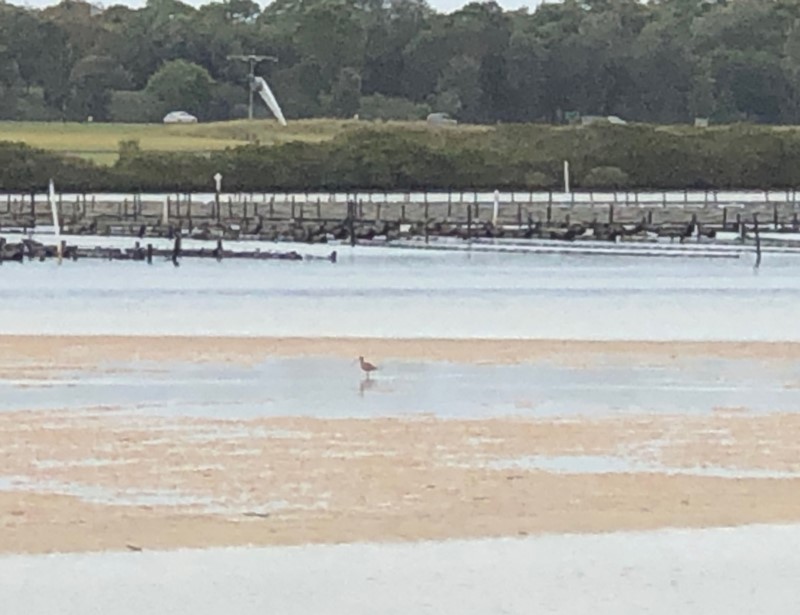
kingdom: Animalia
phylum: Chordata
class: Aves
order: Charadriiformes
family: Scolopacidae
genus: Numenius
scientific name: Numenius madagascariensis
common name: Far eastern curlew
